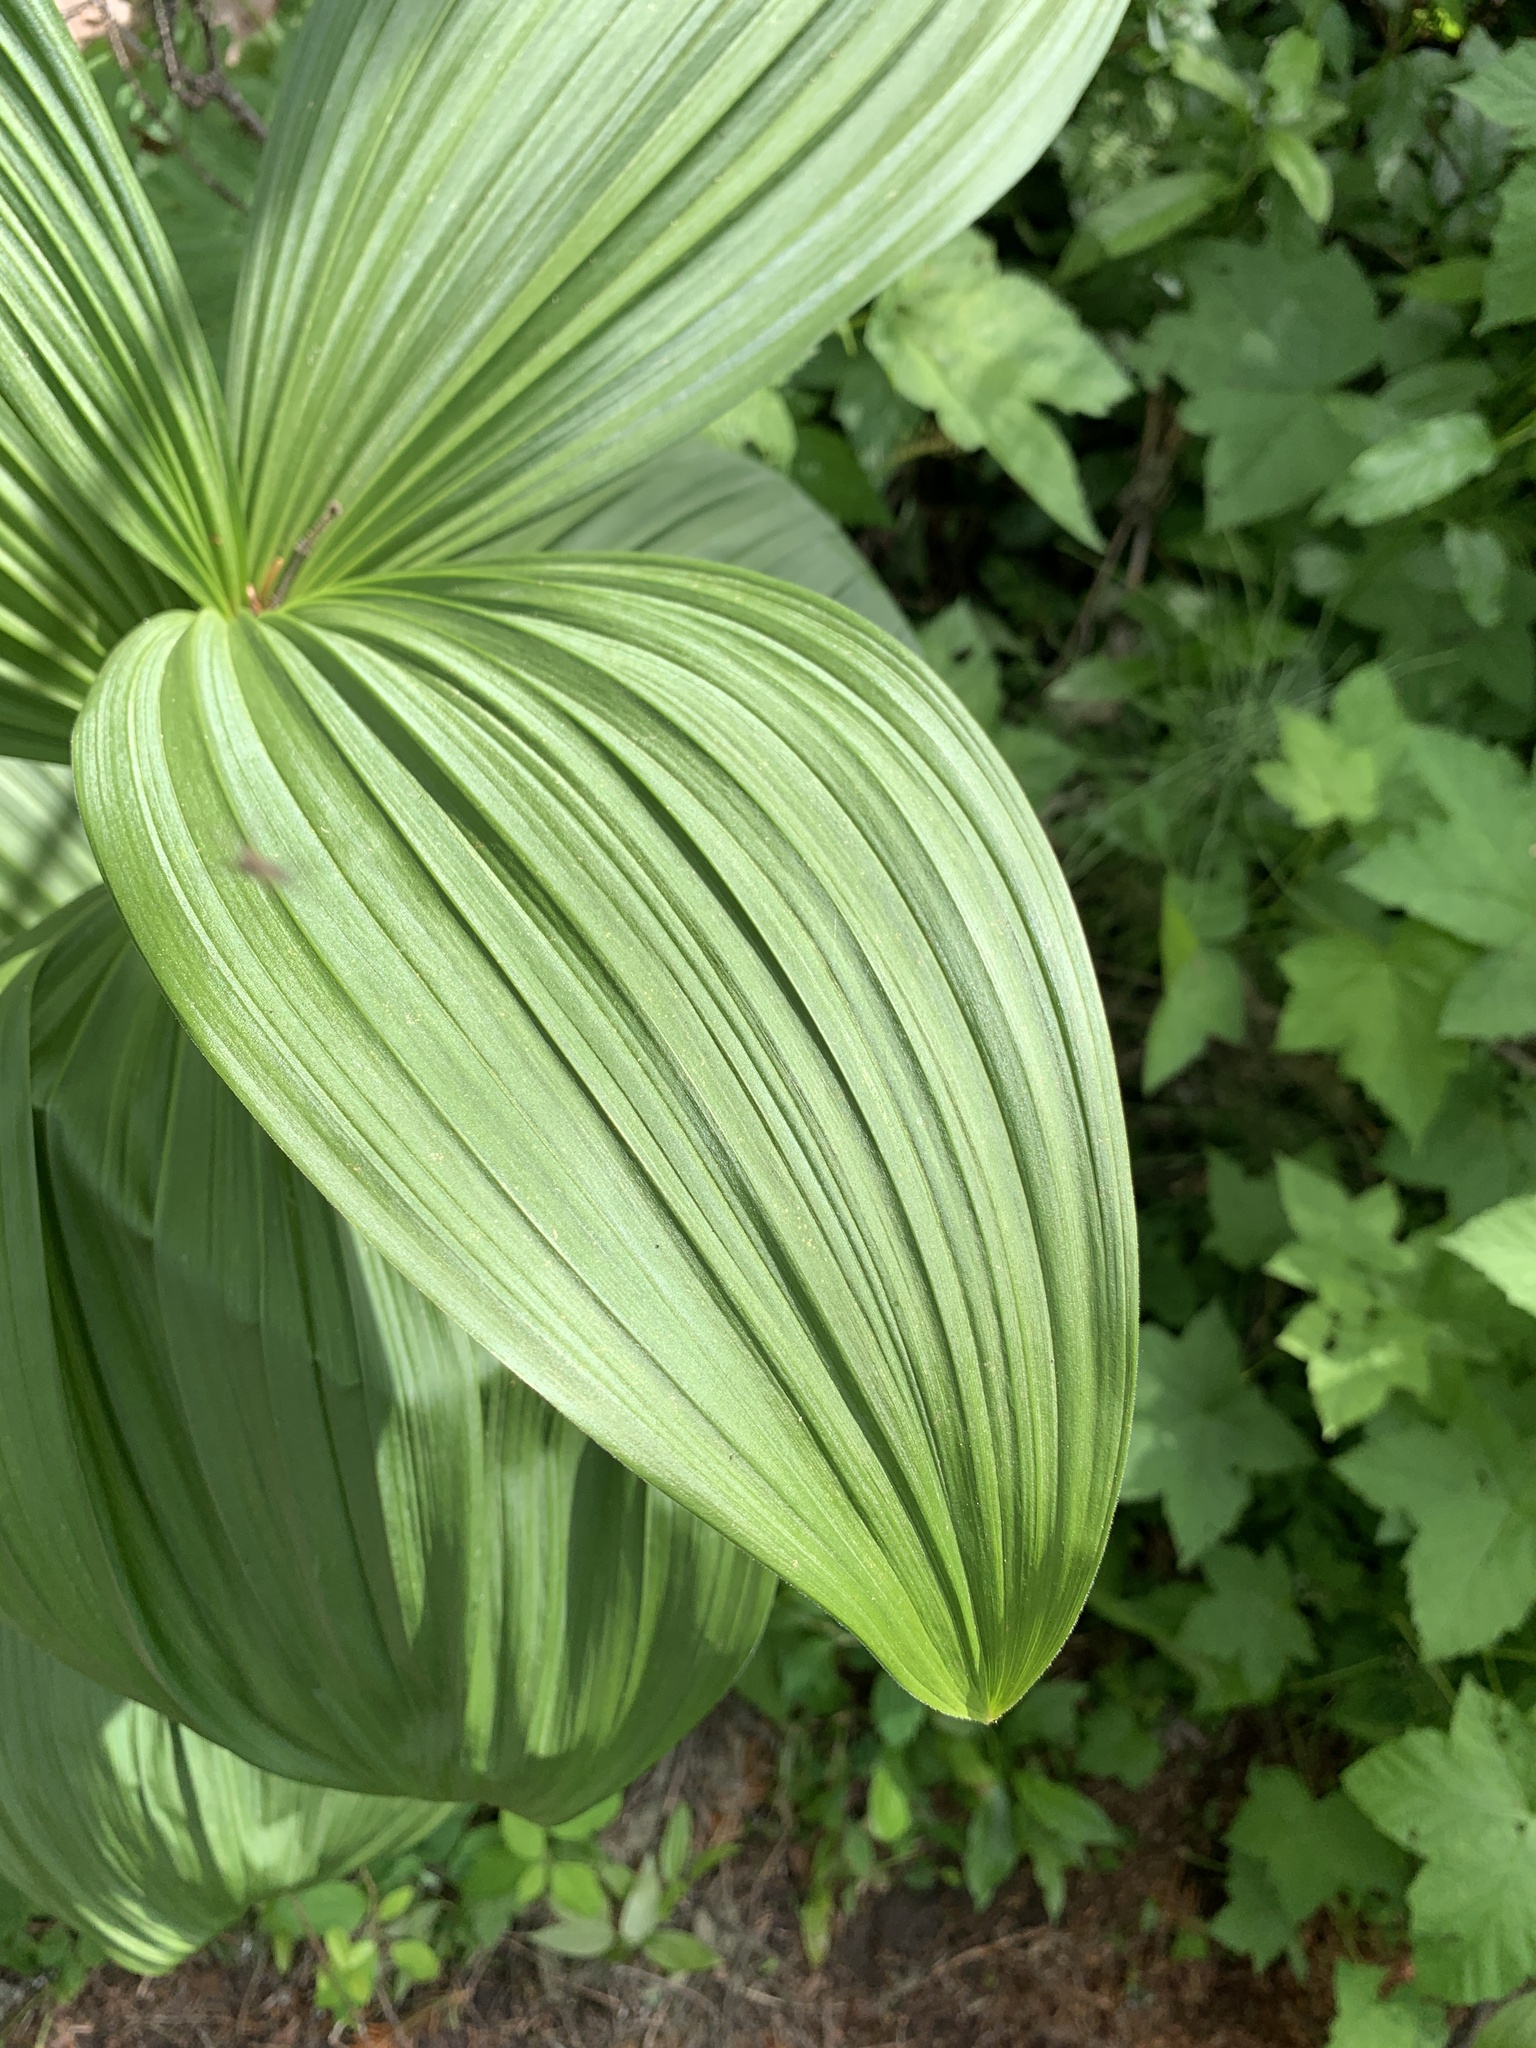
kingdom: Plantae
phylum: Tracheophyta
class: Liliopsida
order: Liliales
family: Melanthiaceae
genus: Veratrum
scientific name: Veratrum viride
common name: American false hellebore
